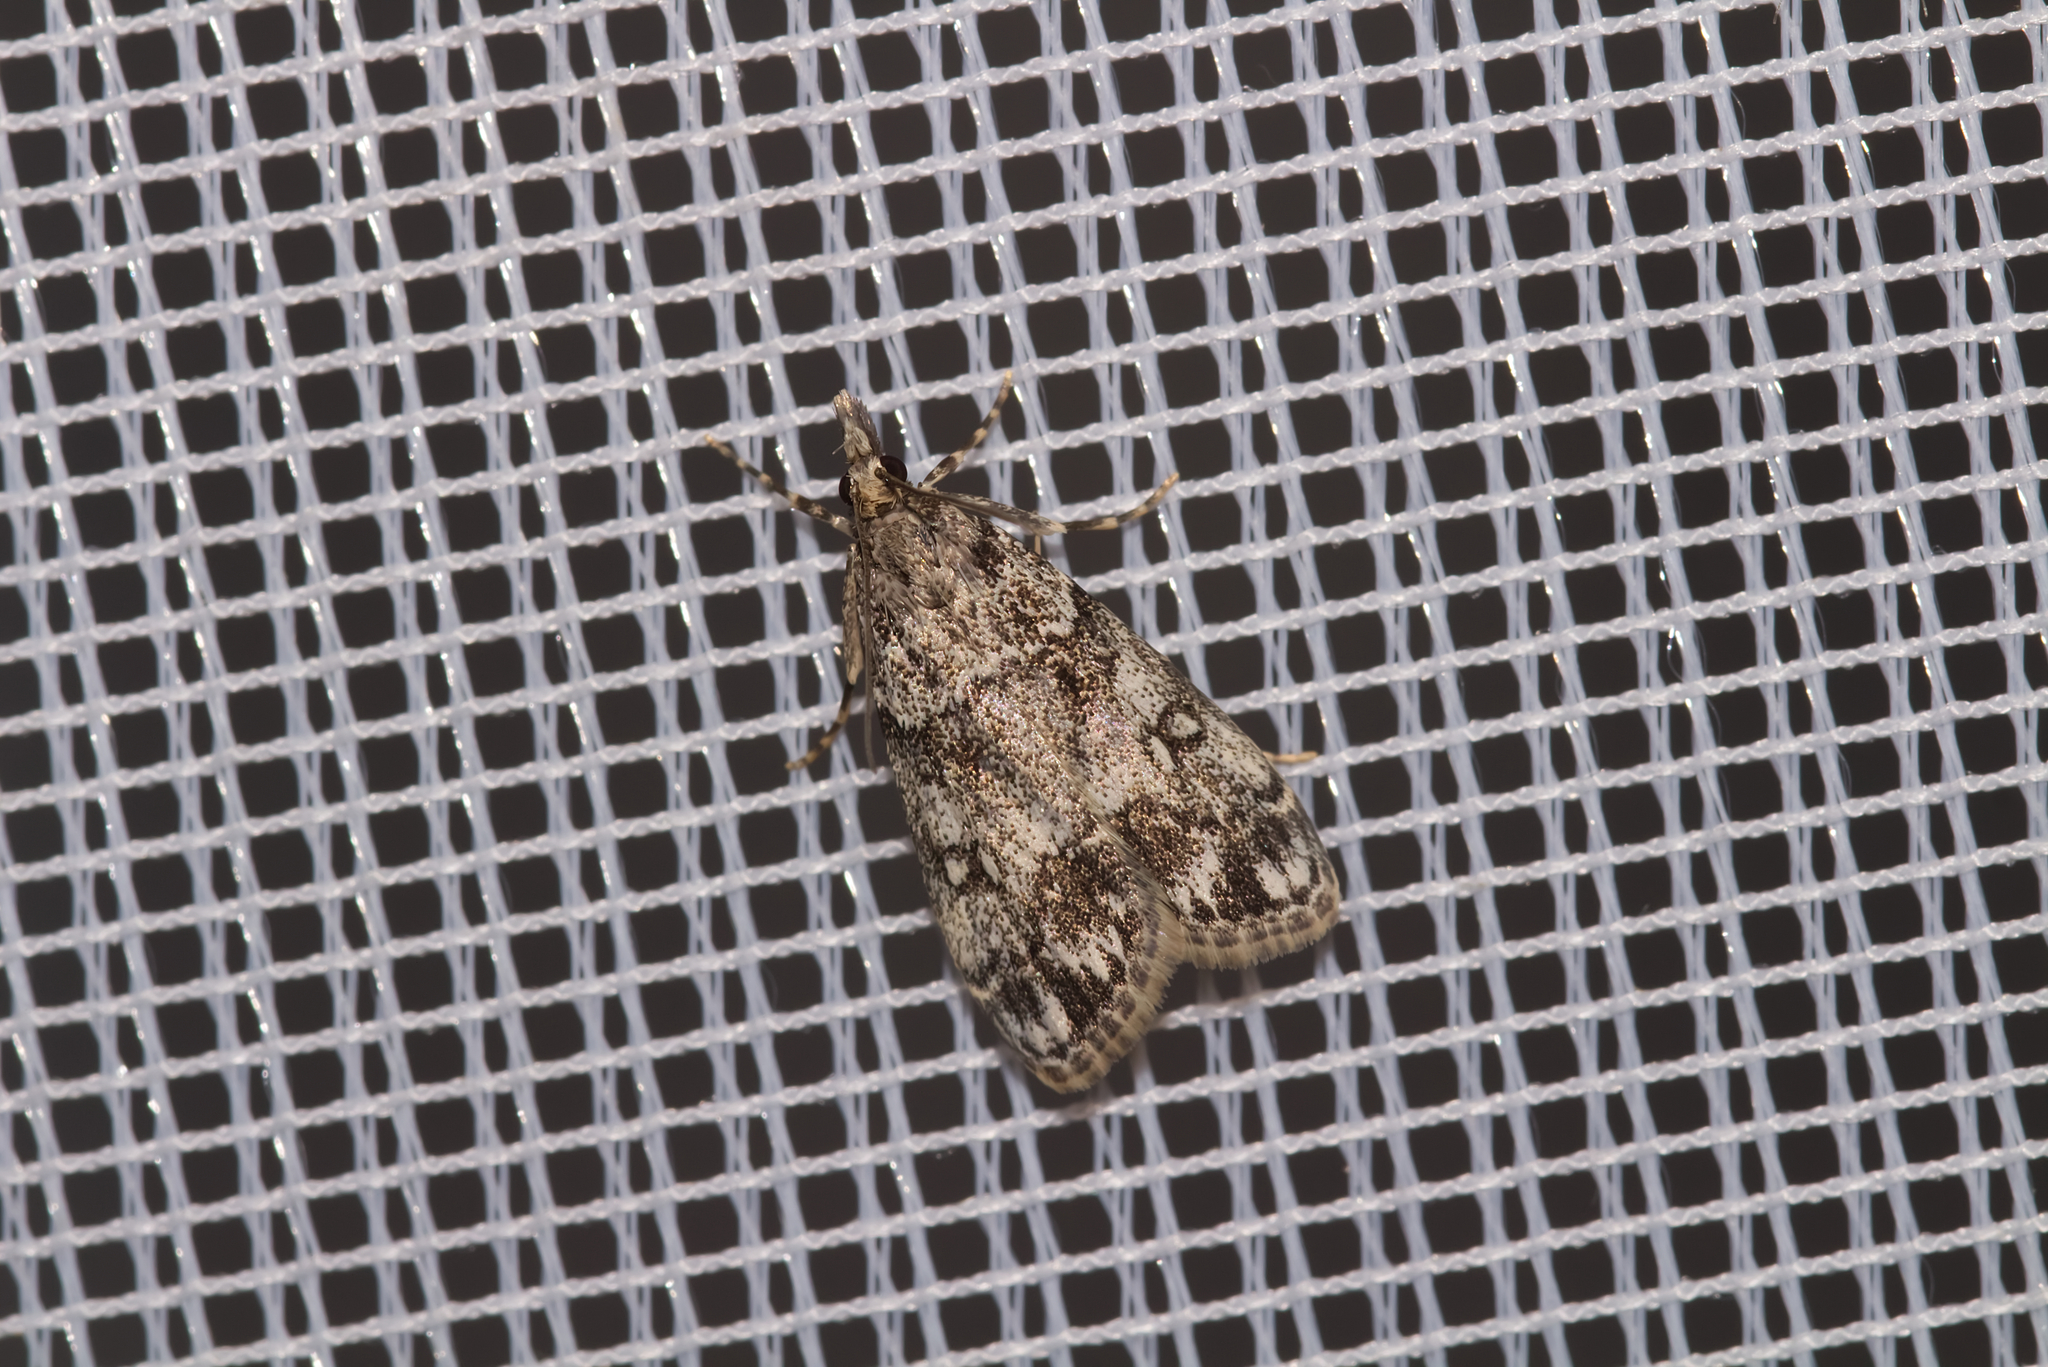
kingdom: Animalia
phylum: Arthropoda
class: Insecta
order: Lepidoptera
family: Crambidae
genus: Eudonia
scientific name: Eudonia lacustrata
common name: Little grey
